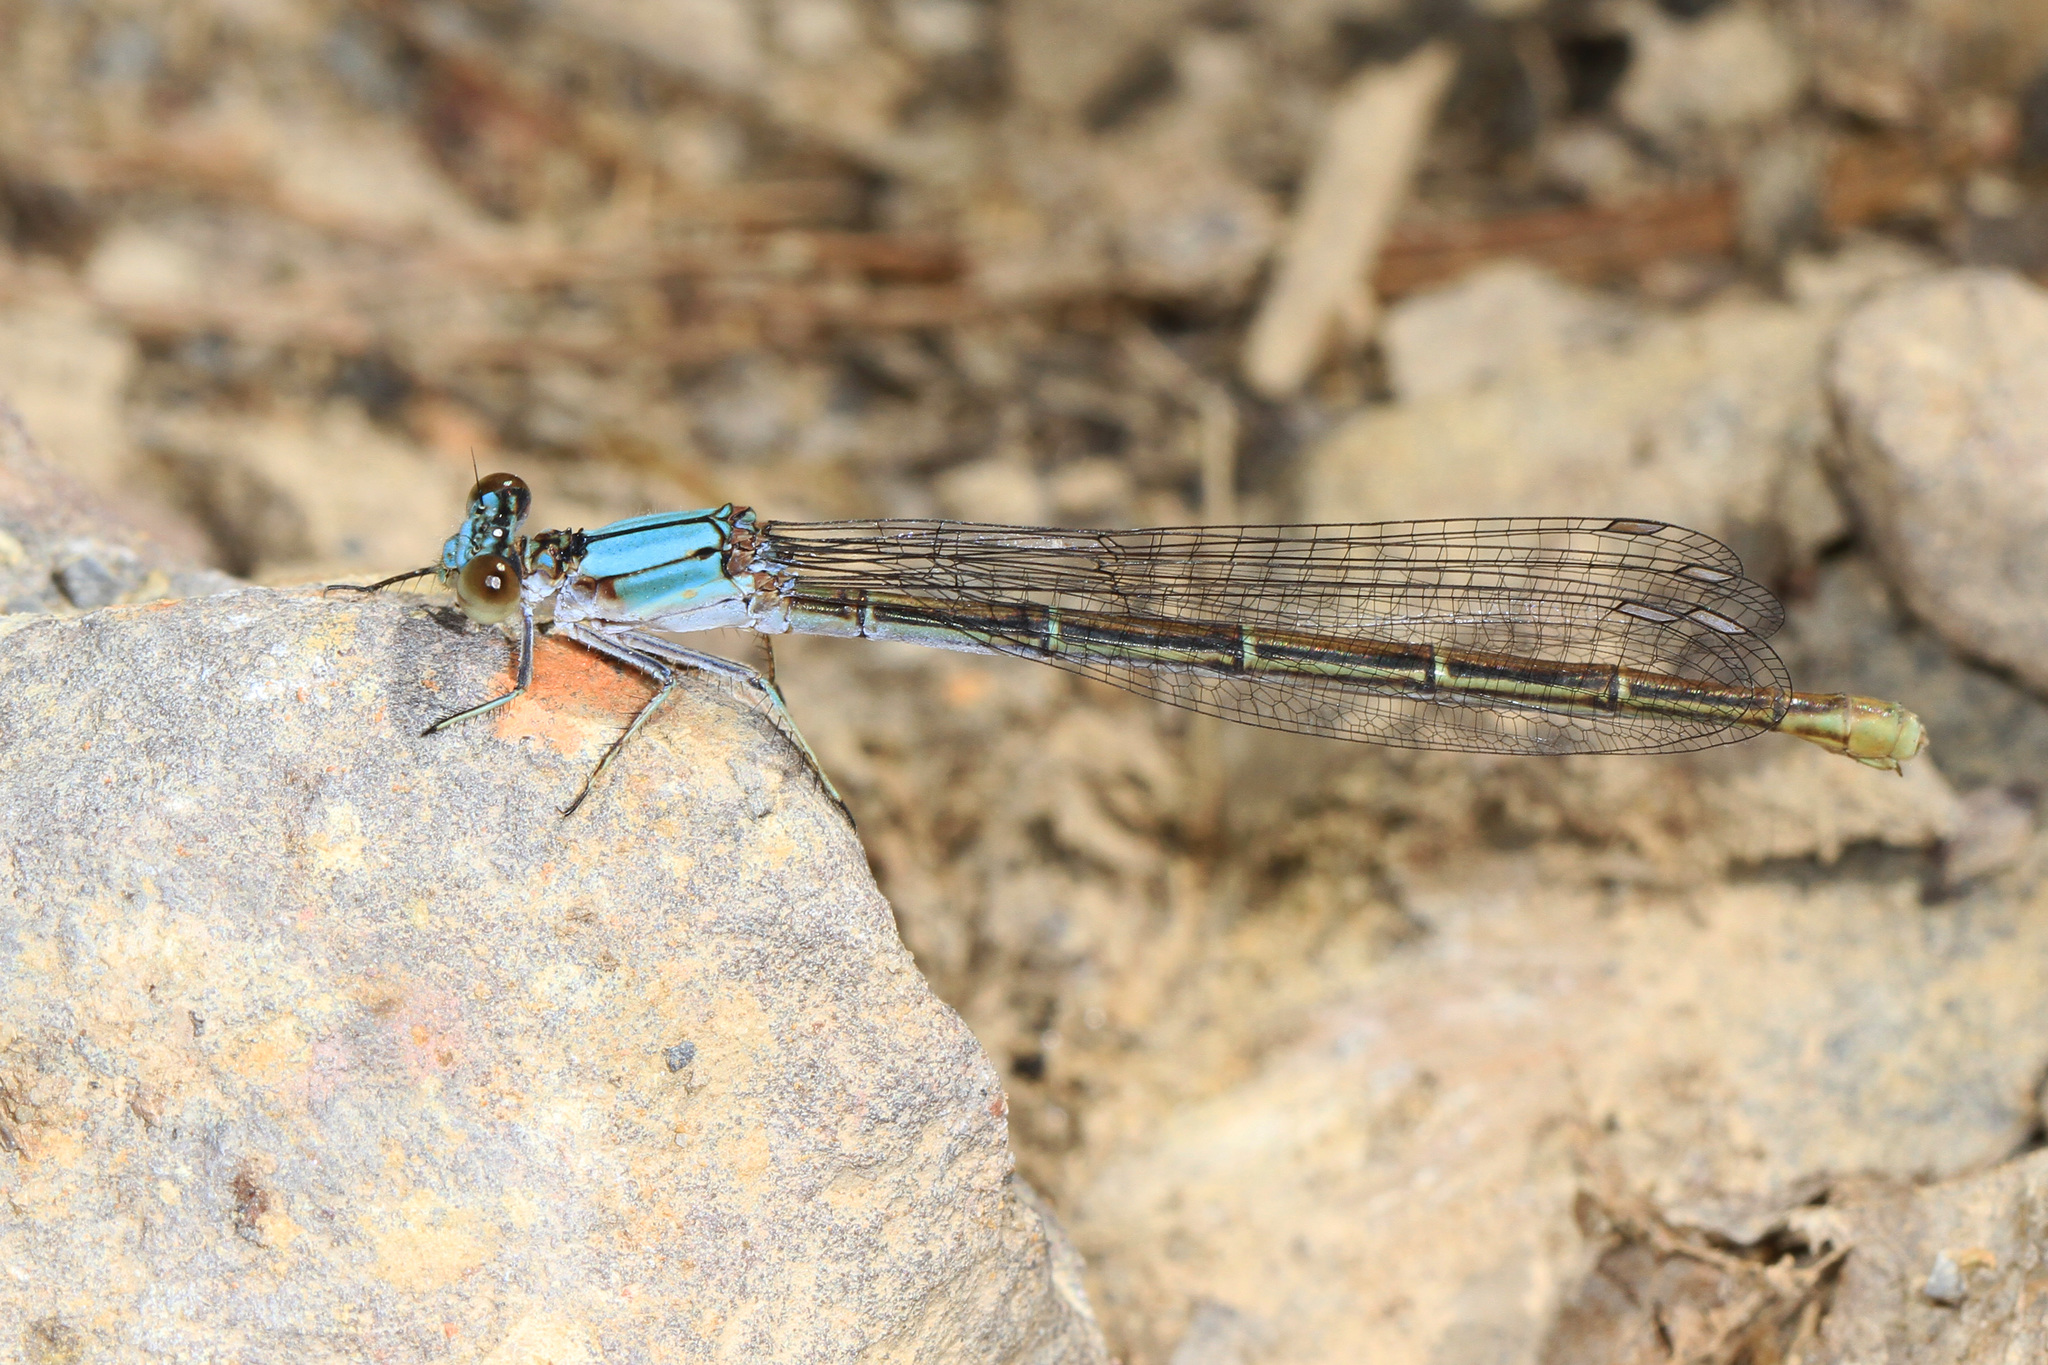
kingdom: Animalia
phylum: Arthropoda
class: Insecta
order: Odonata
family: Coenagrionidae
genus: Argia
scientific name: Argia moesta
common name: Powdered dancer
